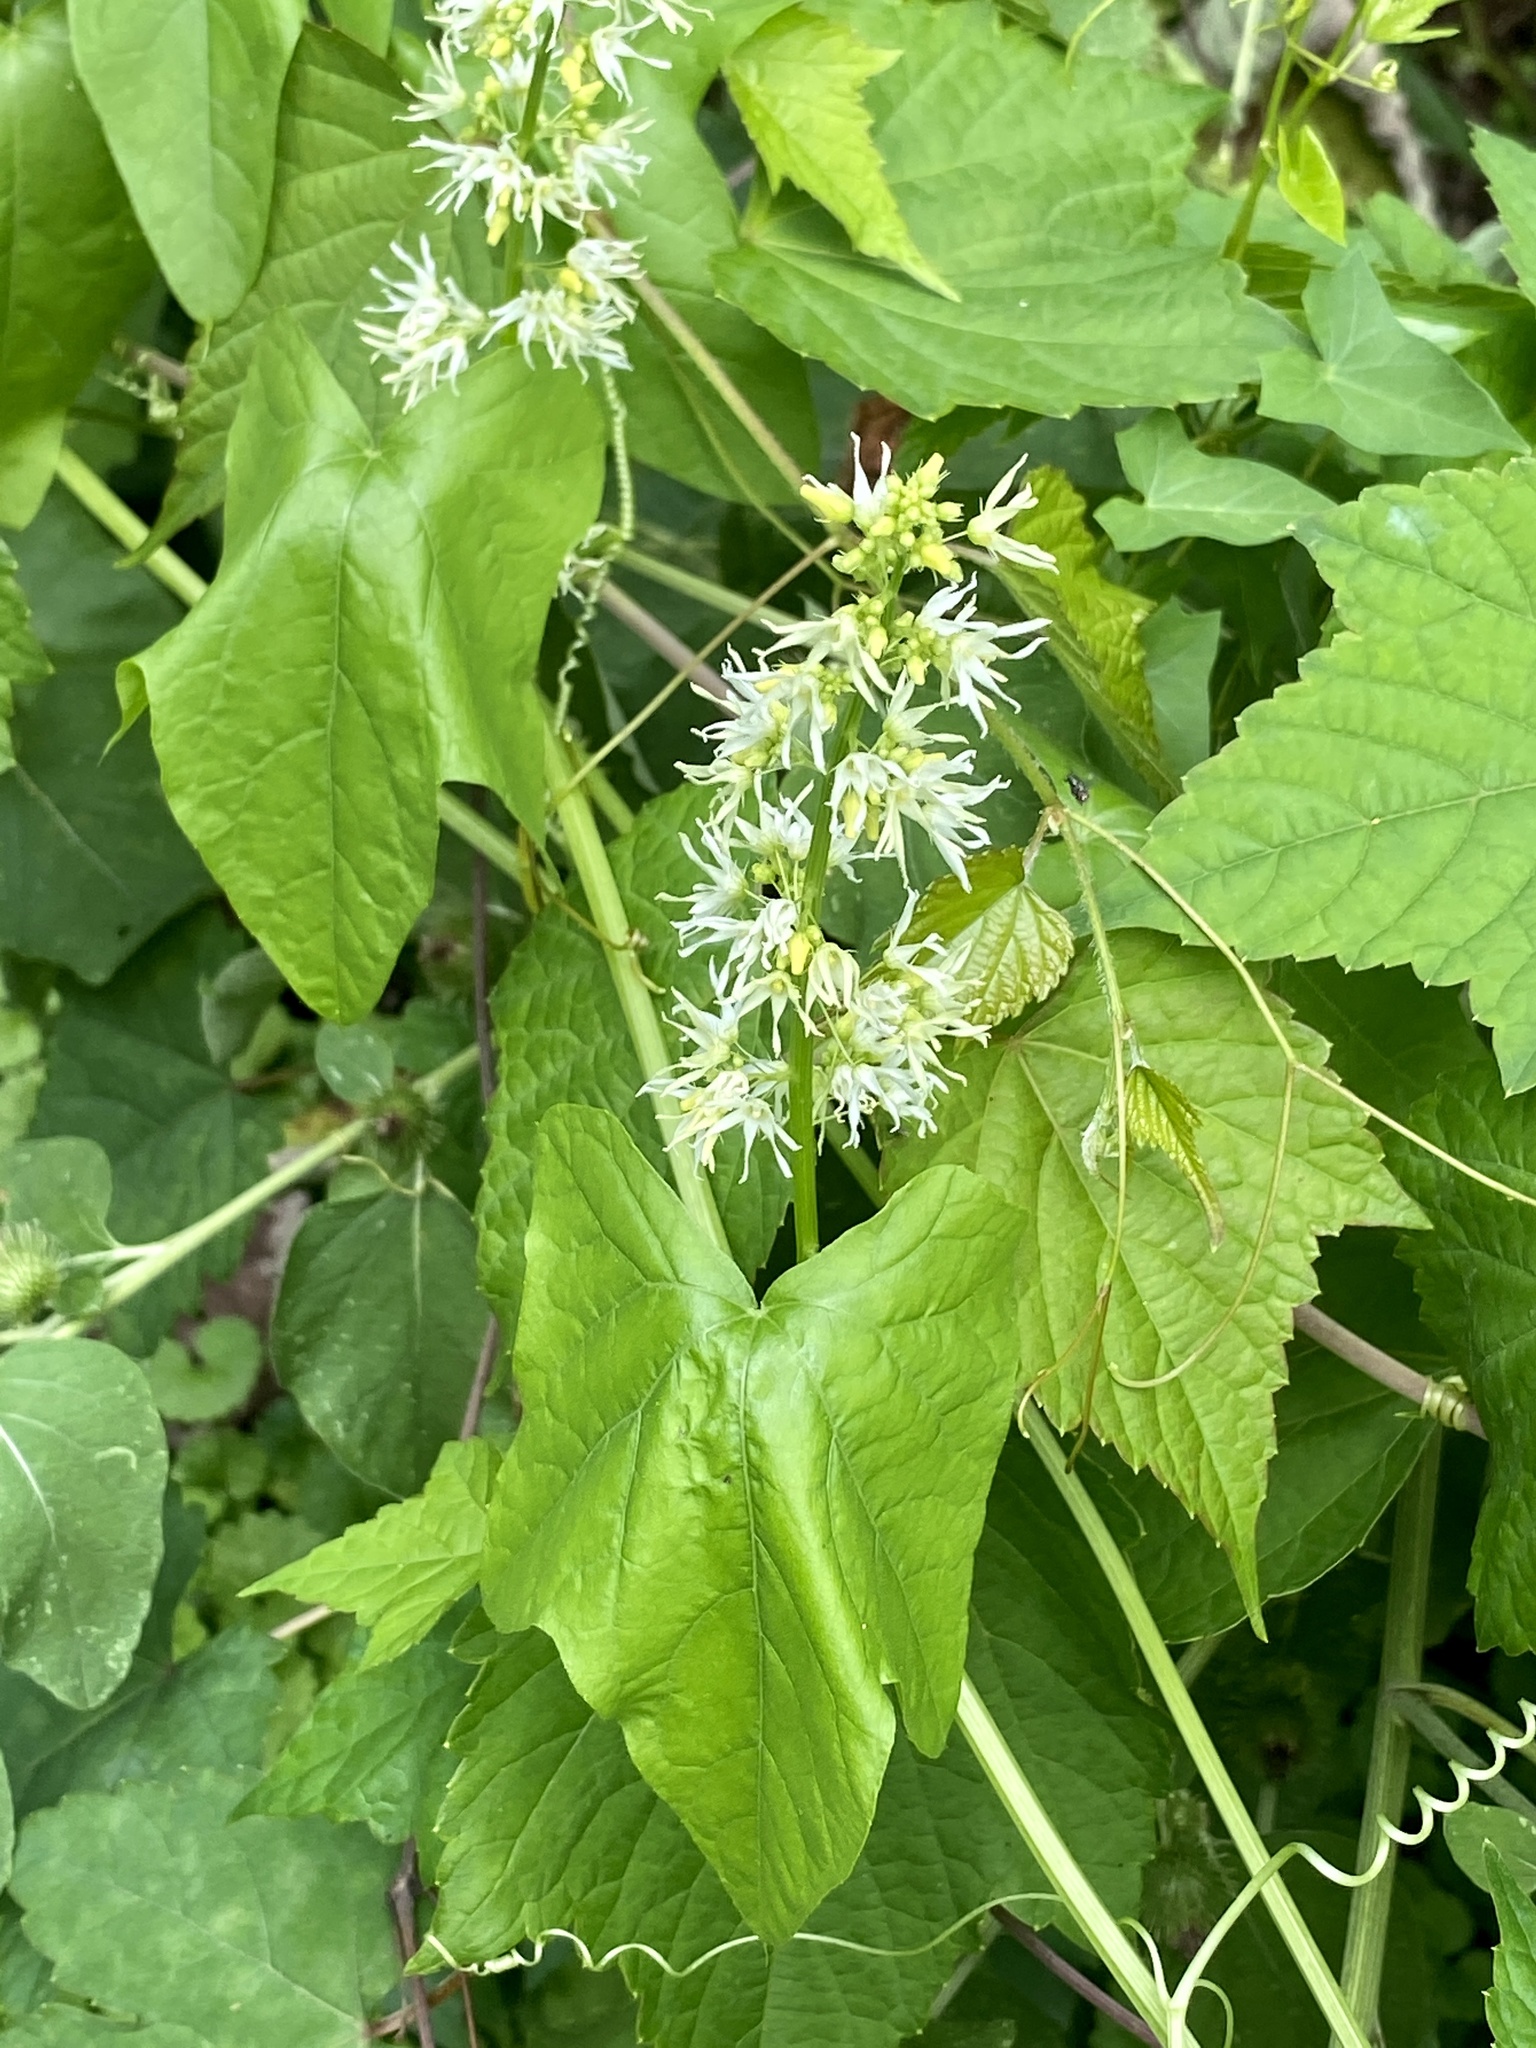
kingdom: Plantae
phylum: Tracheophyta
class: Magnoliopsida
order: Cucurbitales
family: Cucurbitaceae
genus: Echinocystis
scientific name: Echinocystis lobata
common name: Wild cucumber
